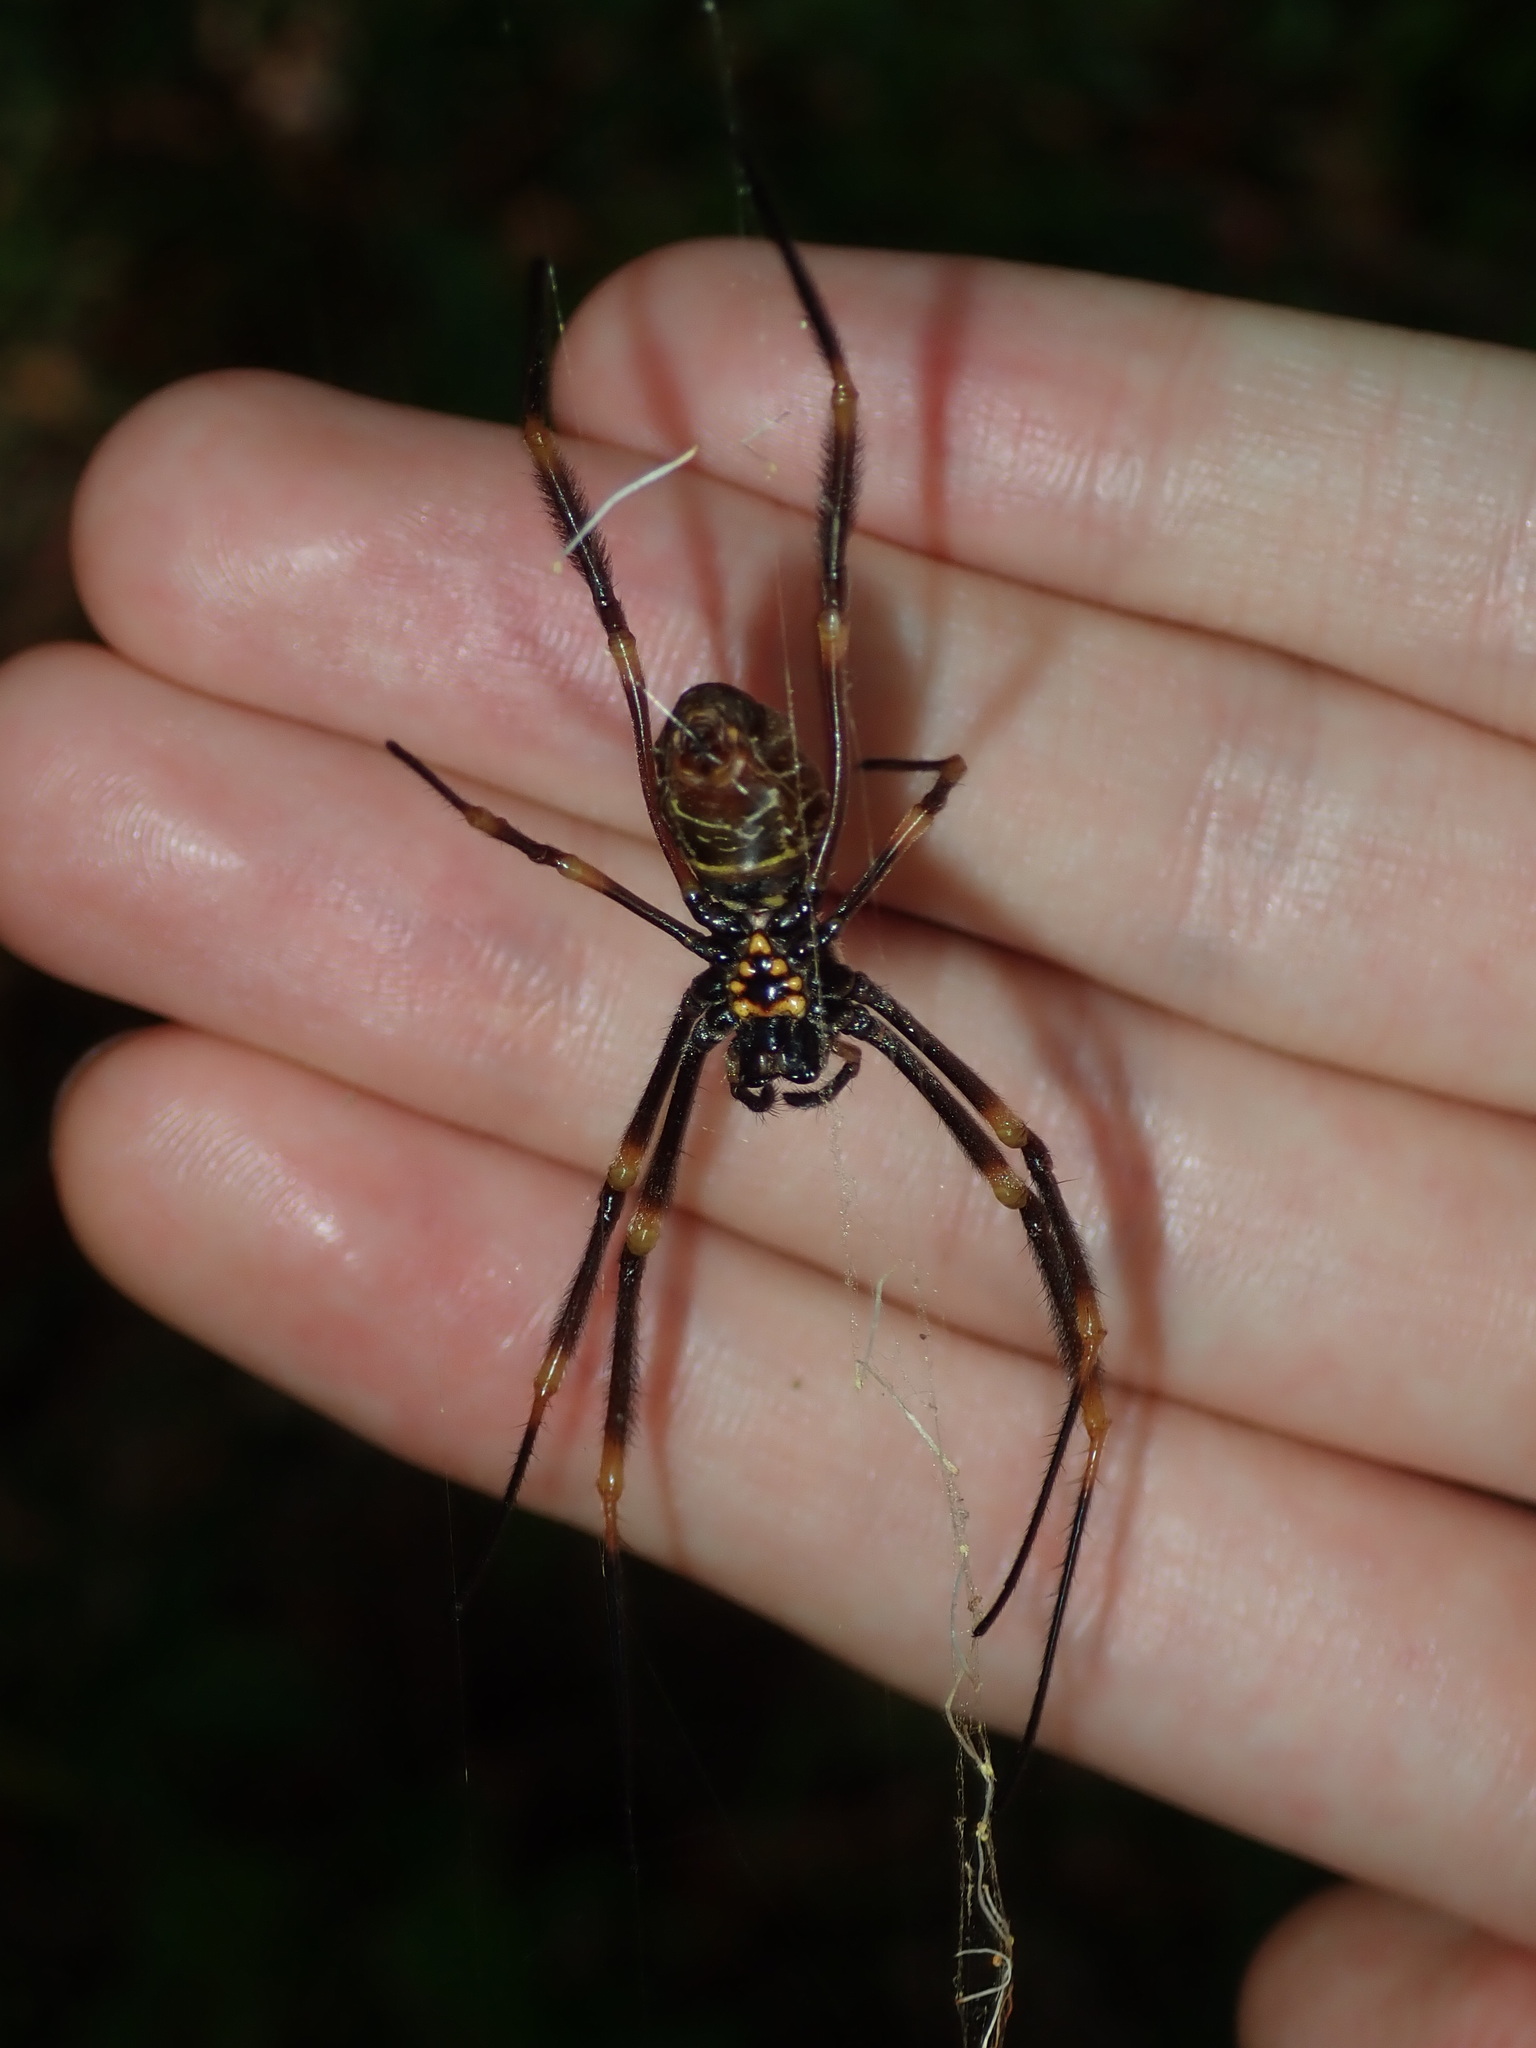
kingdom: Animalia
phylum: Arthropoda
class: Arachnida
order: Araneae
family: Araneidae
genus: Trichonephila
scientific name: Trichonephila plumipes
